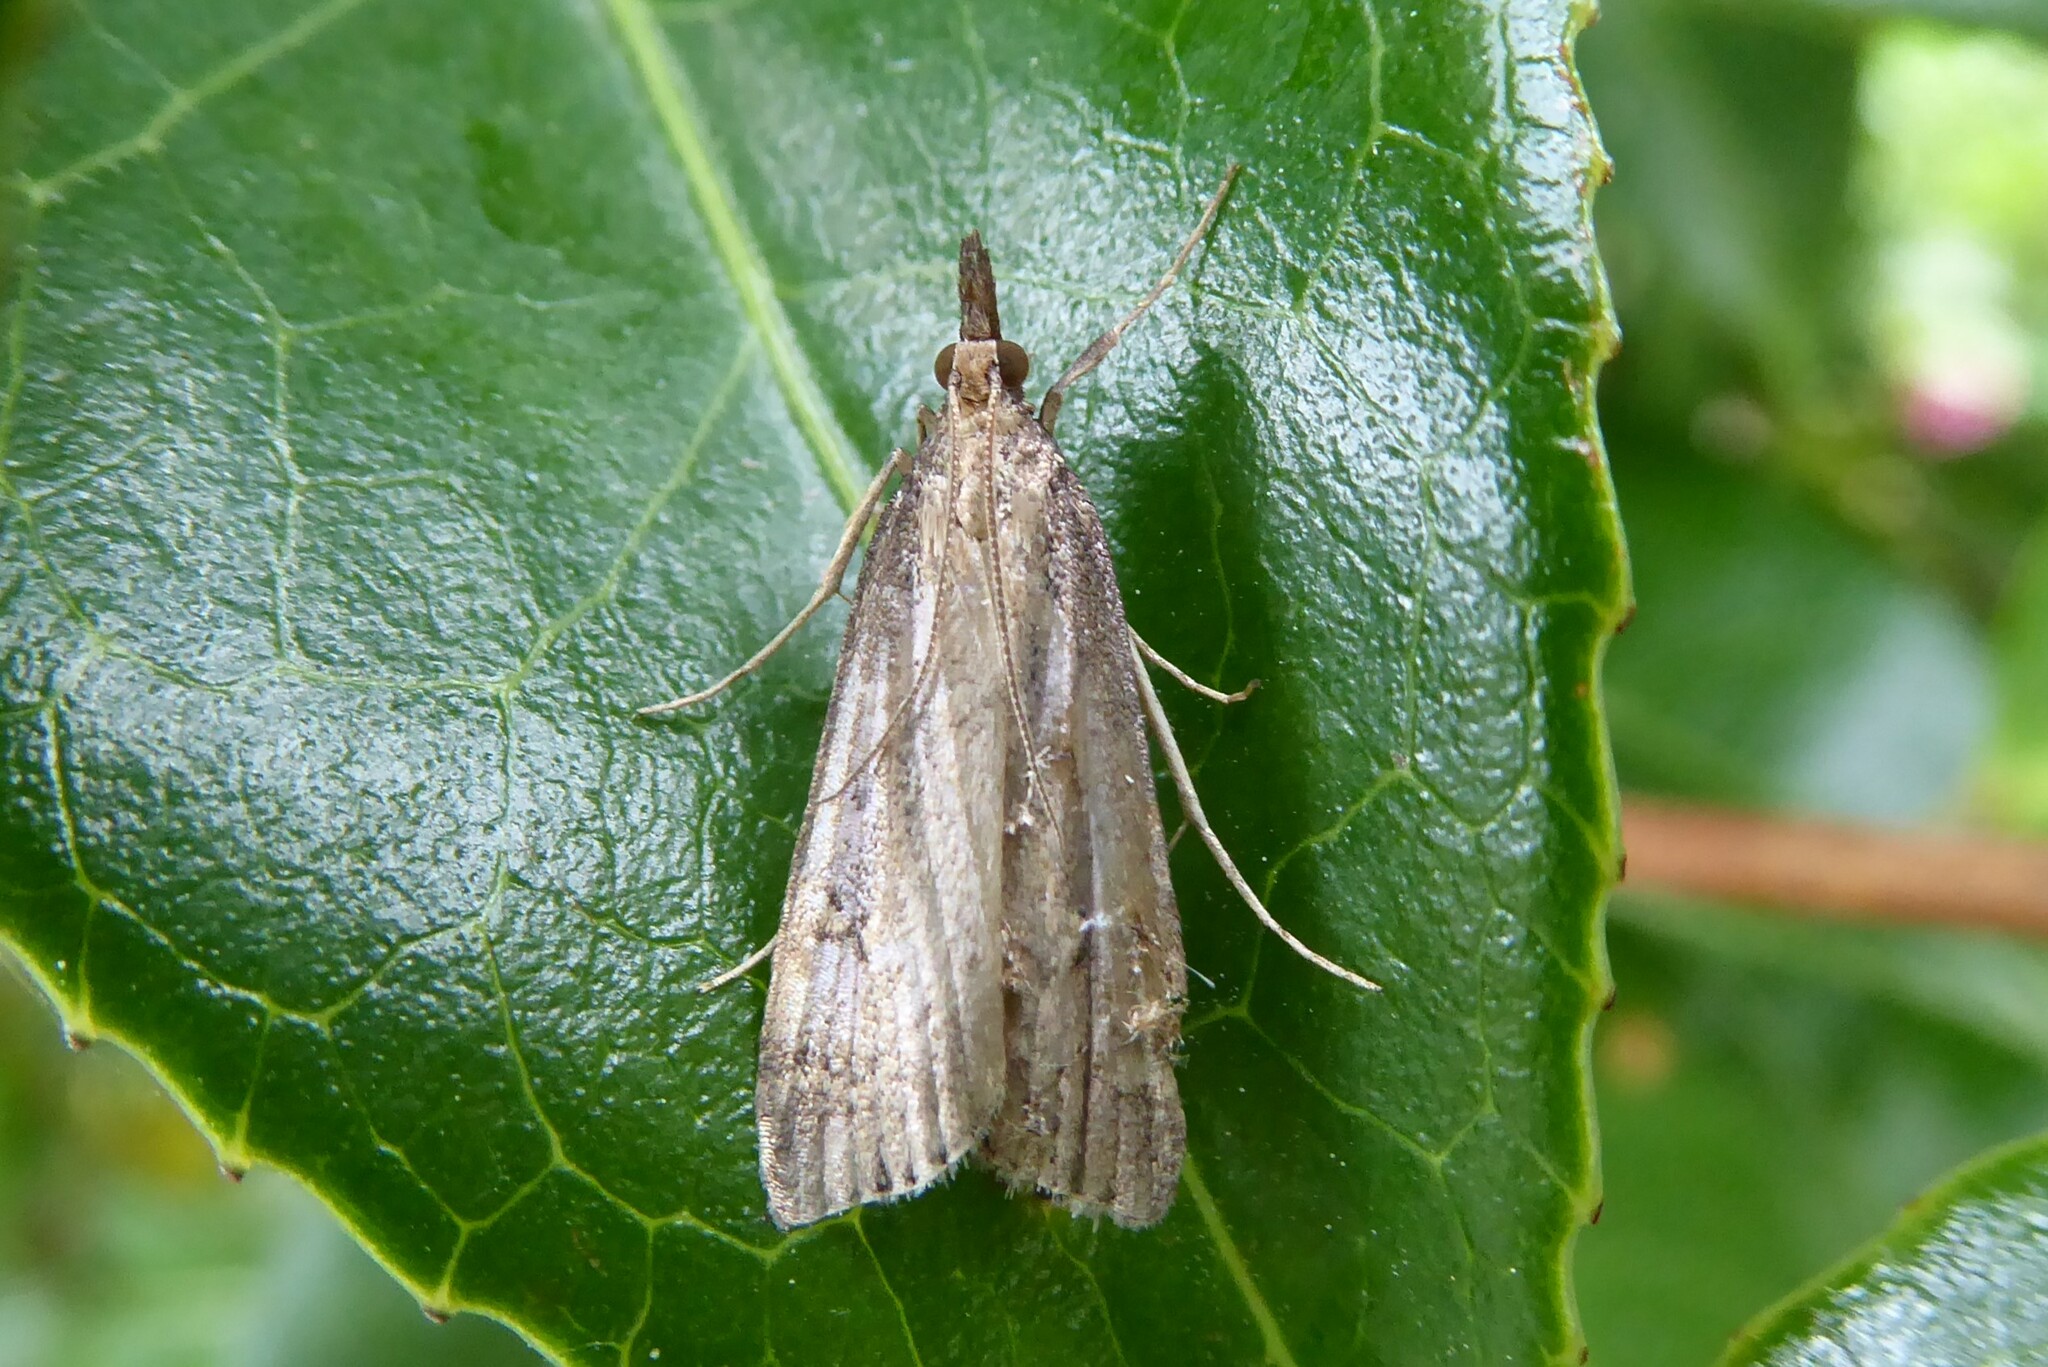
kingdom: Animalia
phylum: Arthropoda
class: Insecta
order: Lepidoptera
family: Crambidae
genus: Eudonia
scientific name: Eudonia octophora
